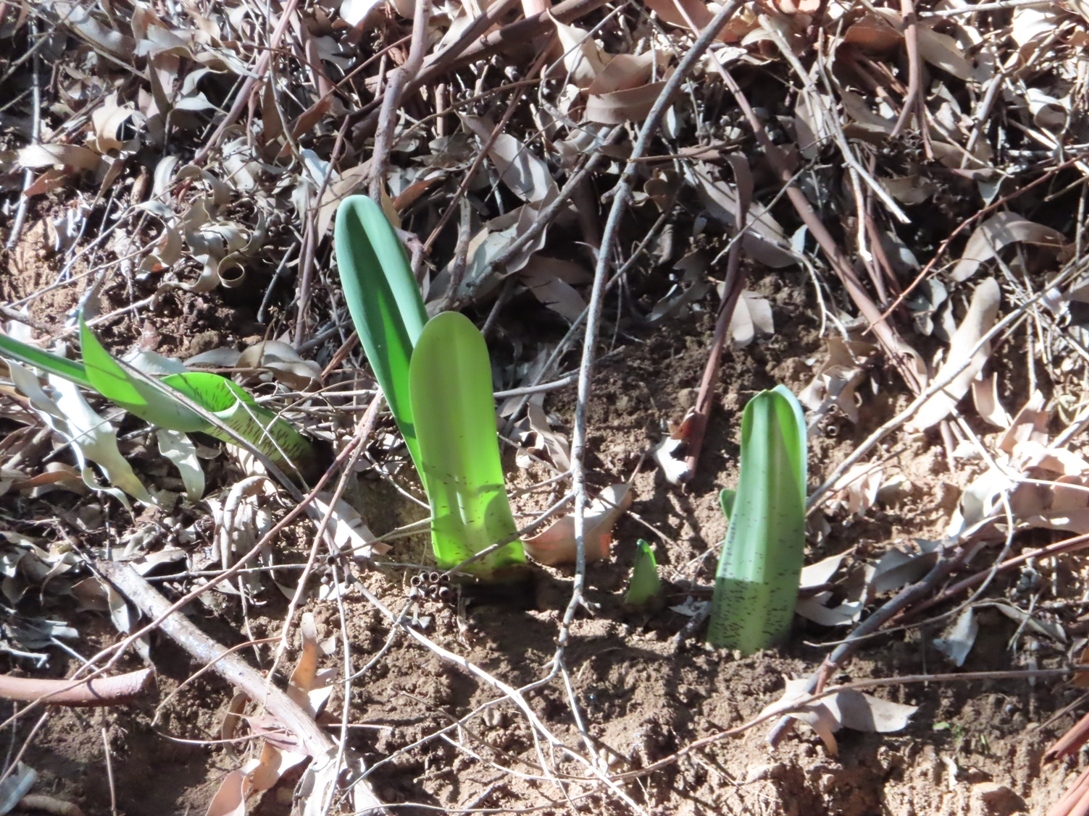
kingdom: Plantae
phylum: Tracheophyta
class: Liliopsida
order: Asparagales
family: Amaryllidaceae
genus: Haemanthus
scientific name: Haemanthus coccineus
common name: Cape-tulip
